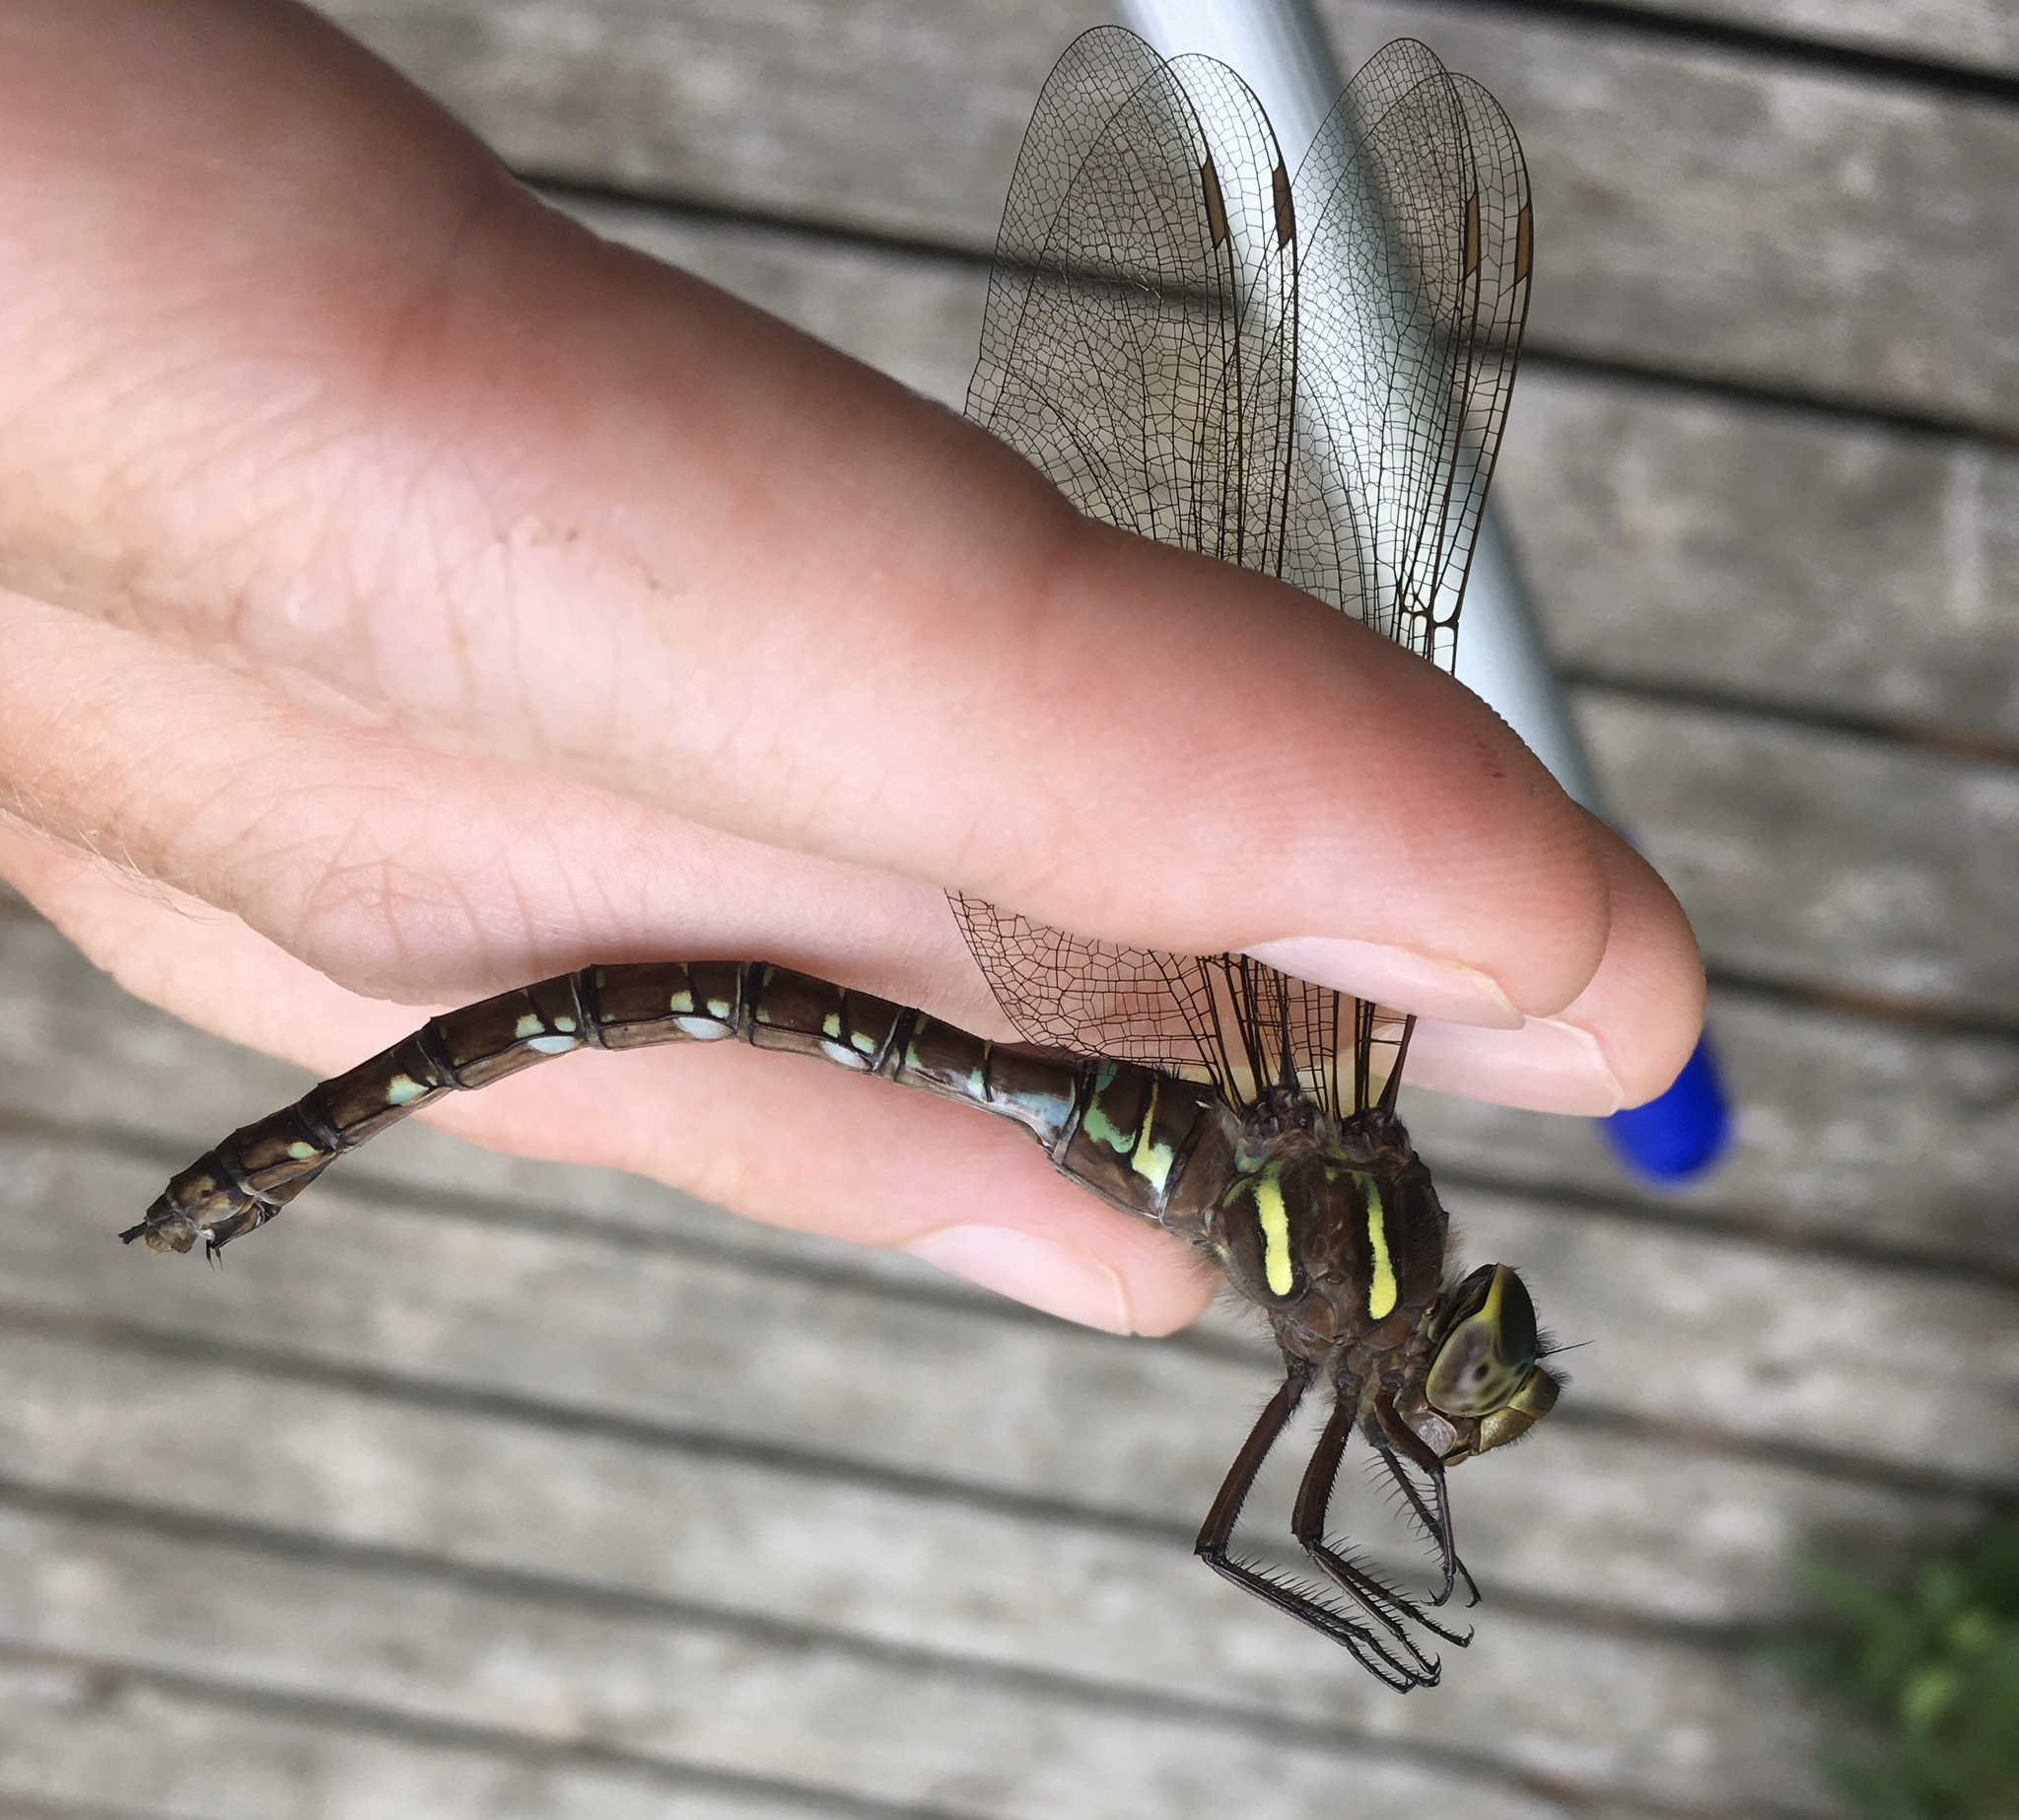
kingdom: Animalia
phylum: Arthropoda
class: Insecta
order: Odonata
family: Aeshnidae
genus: Aeshna
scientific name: Aeshna umbrosa
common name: Shadow darner
